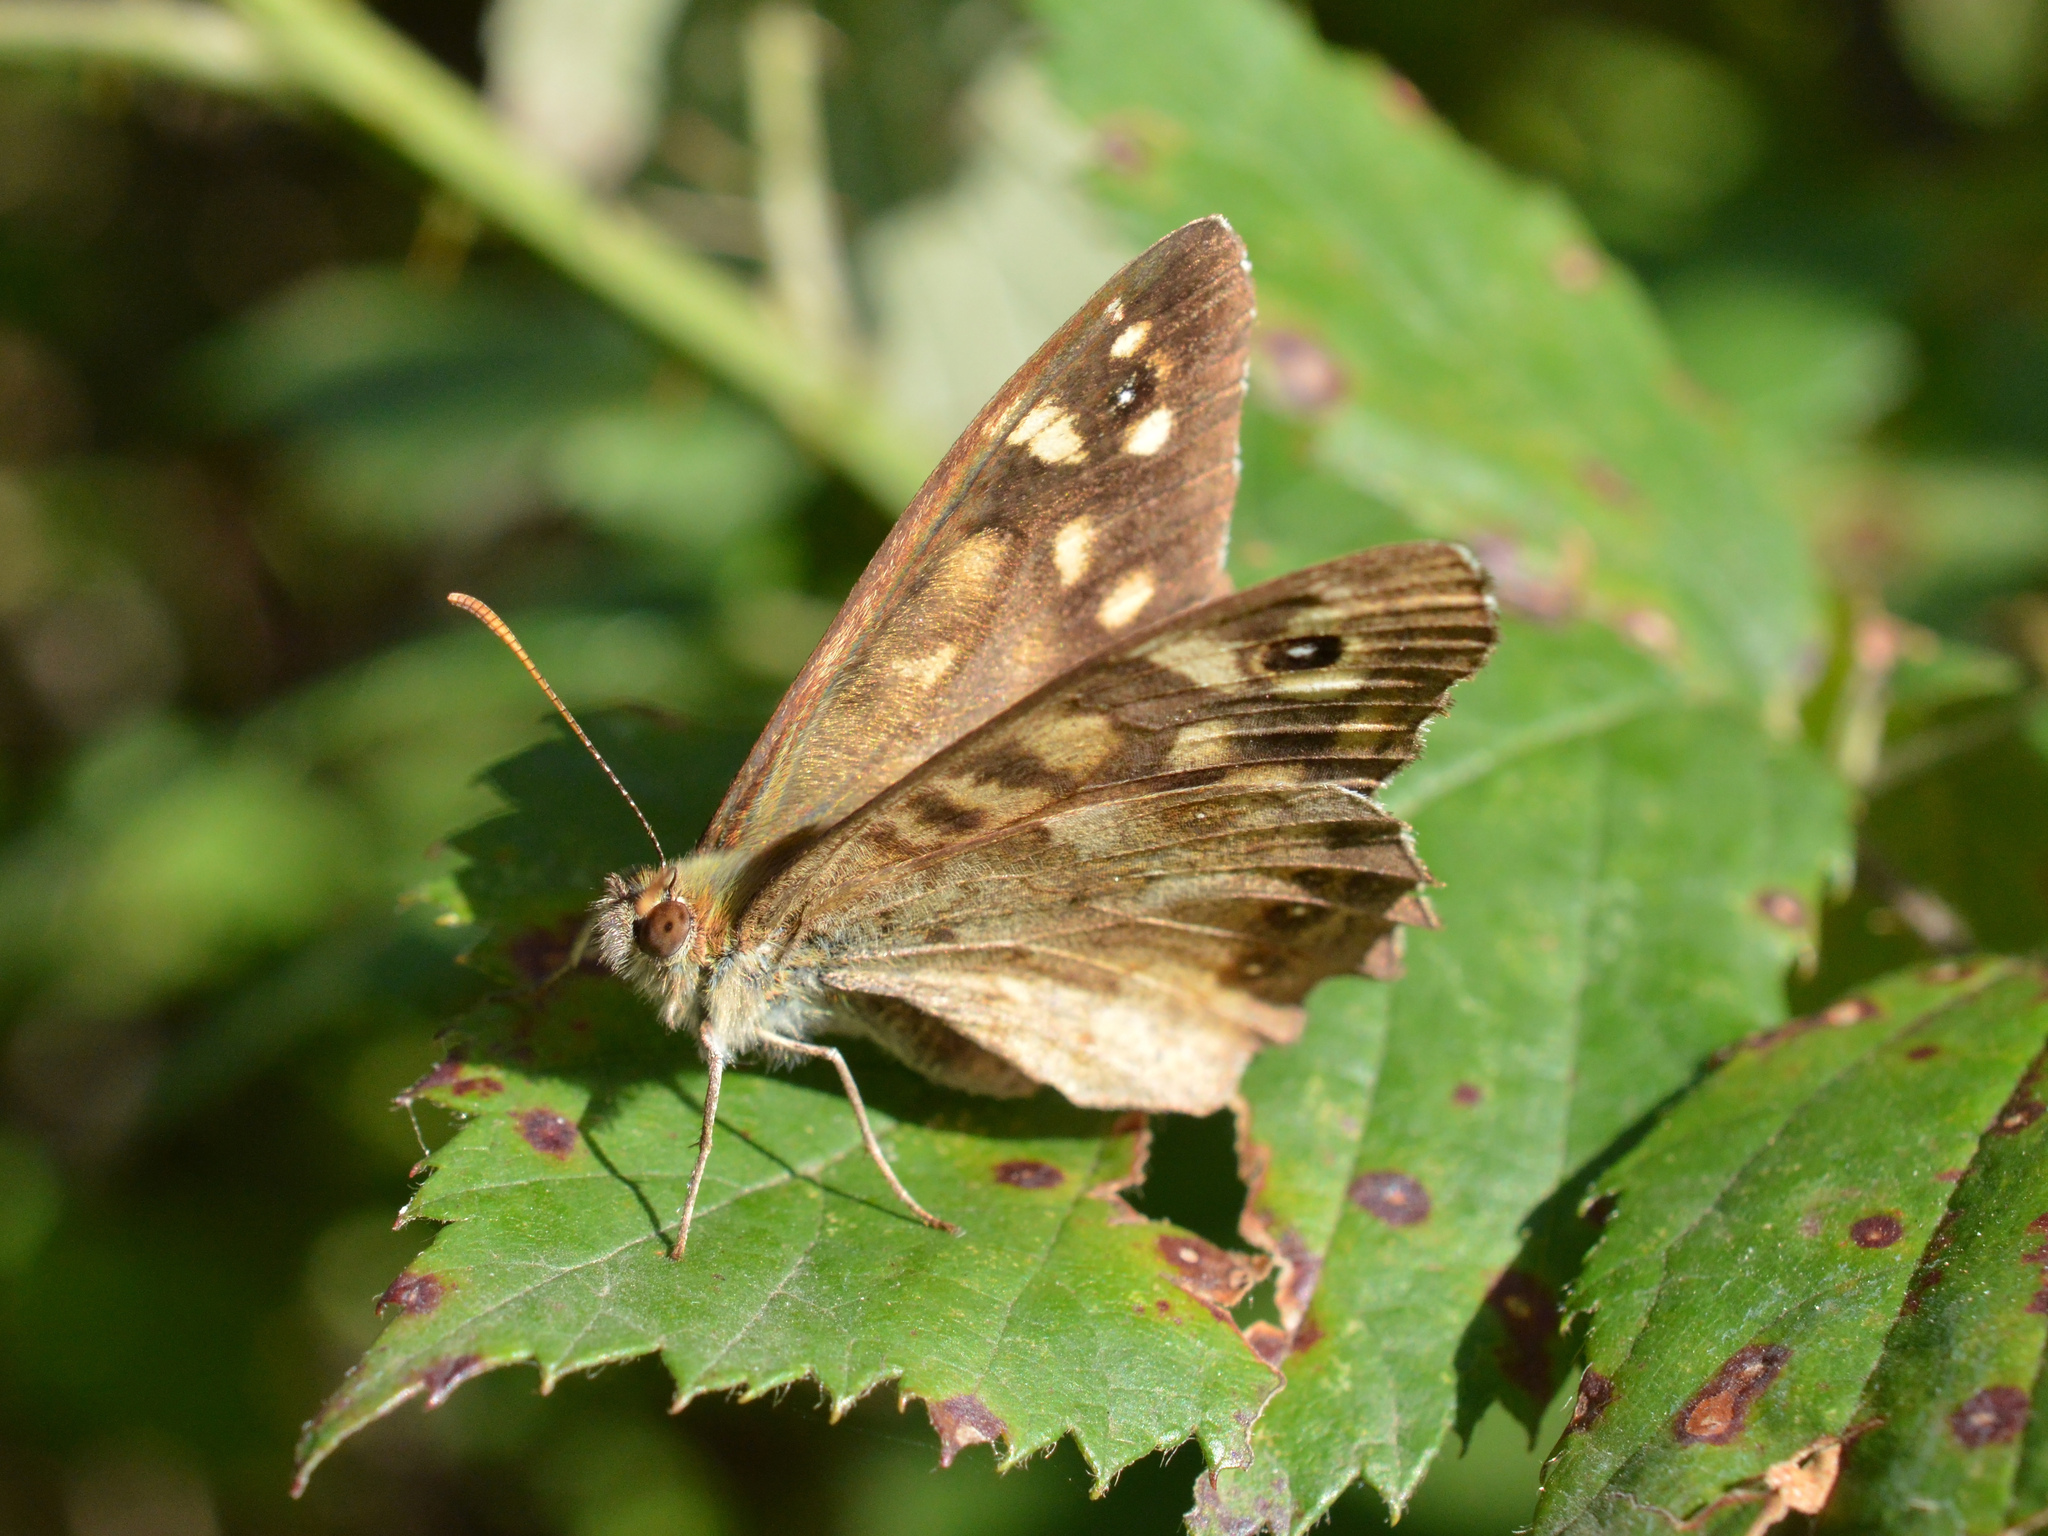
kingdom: Animalia
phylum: Arthropoda
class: Insecta
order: Lepidoptera
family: Nymphalidae
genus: Pararge
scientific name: Pararge aegeria
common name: Speckled wood
